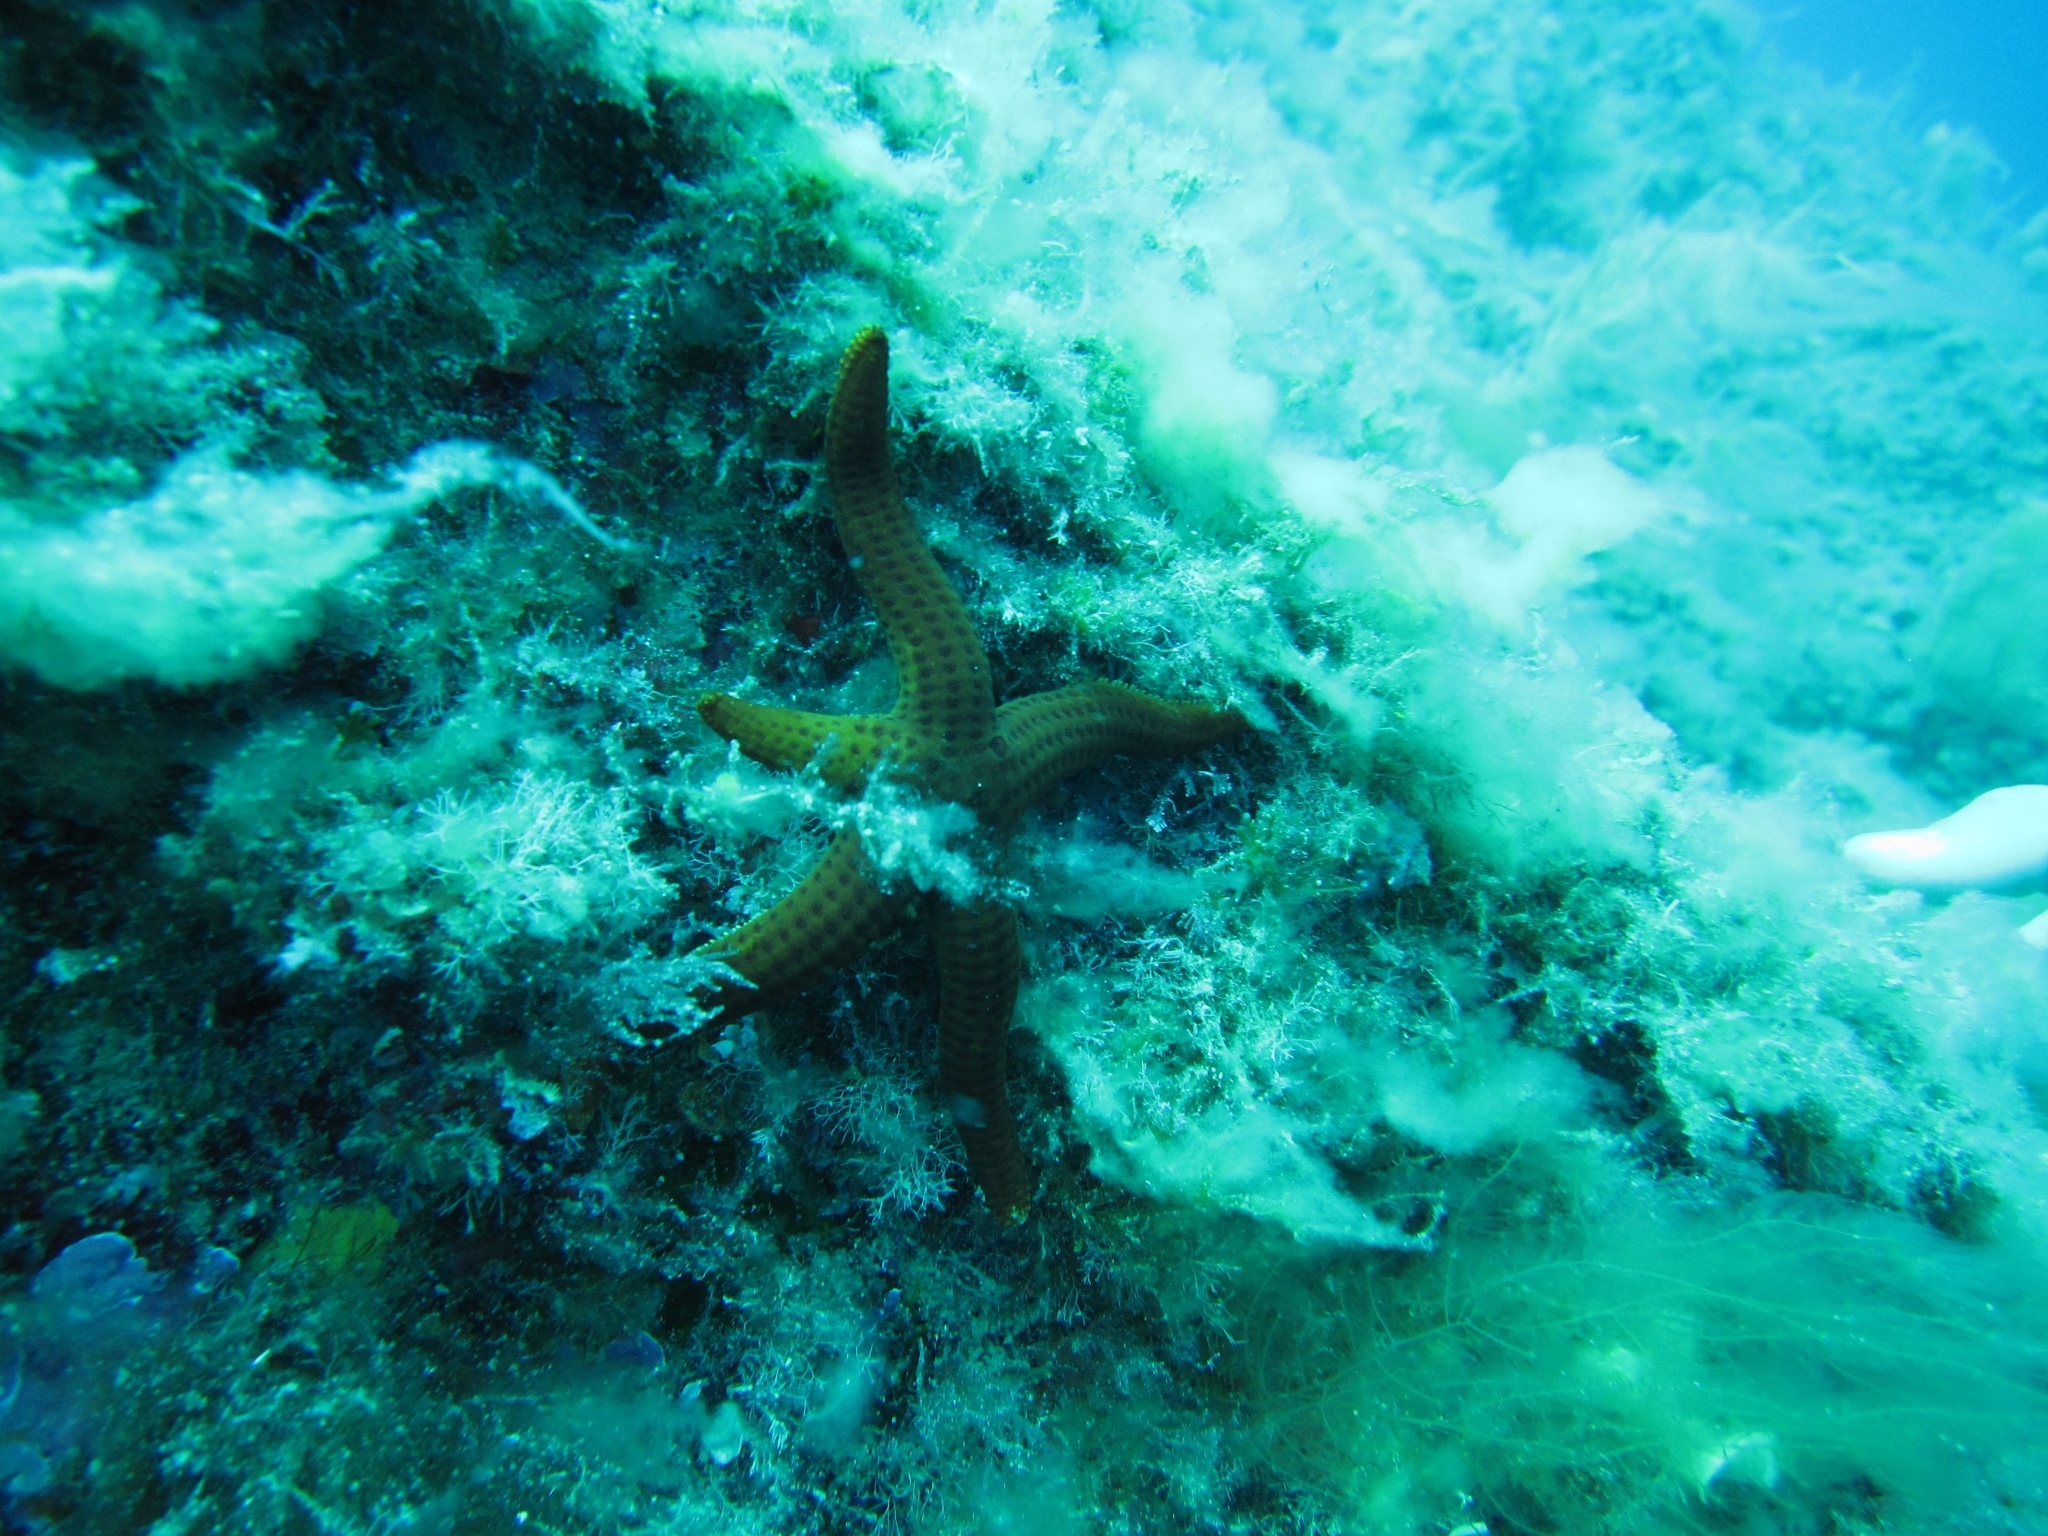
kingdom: Animalia
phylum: Echinodermata
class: Asteroidea
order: Valvatida
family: Ophidiasteridae
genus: Hacelia
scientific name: Hacelia attenuata
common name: Smooth starfish
